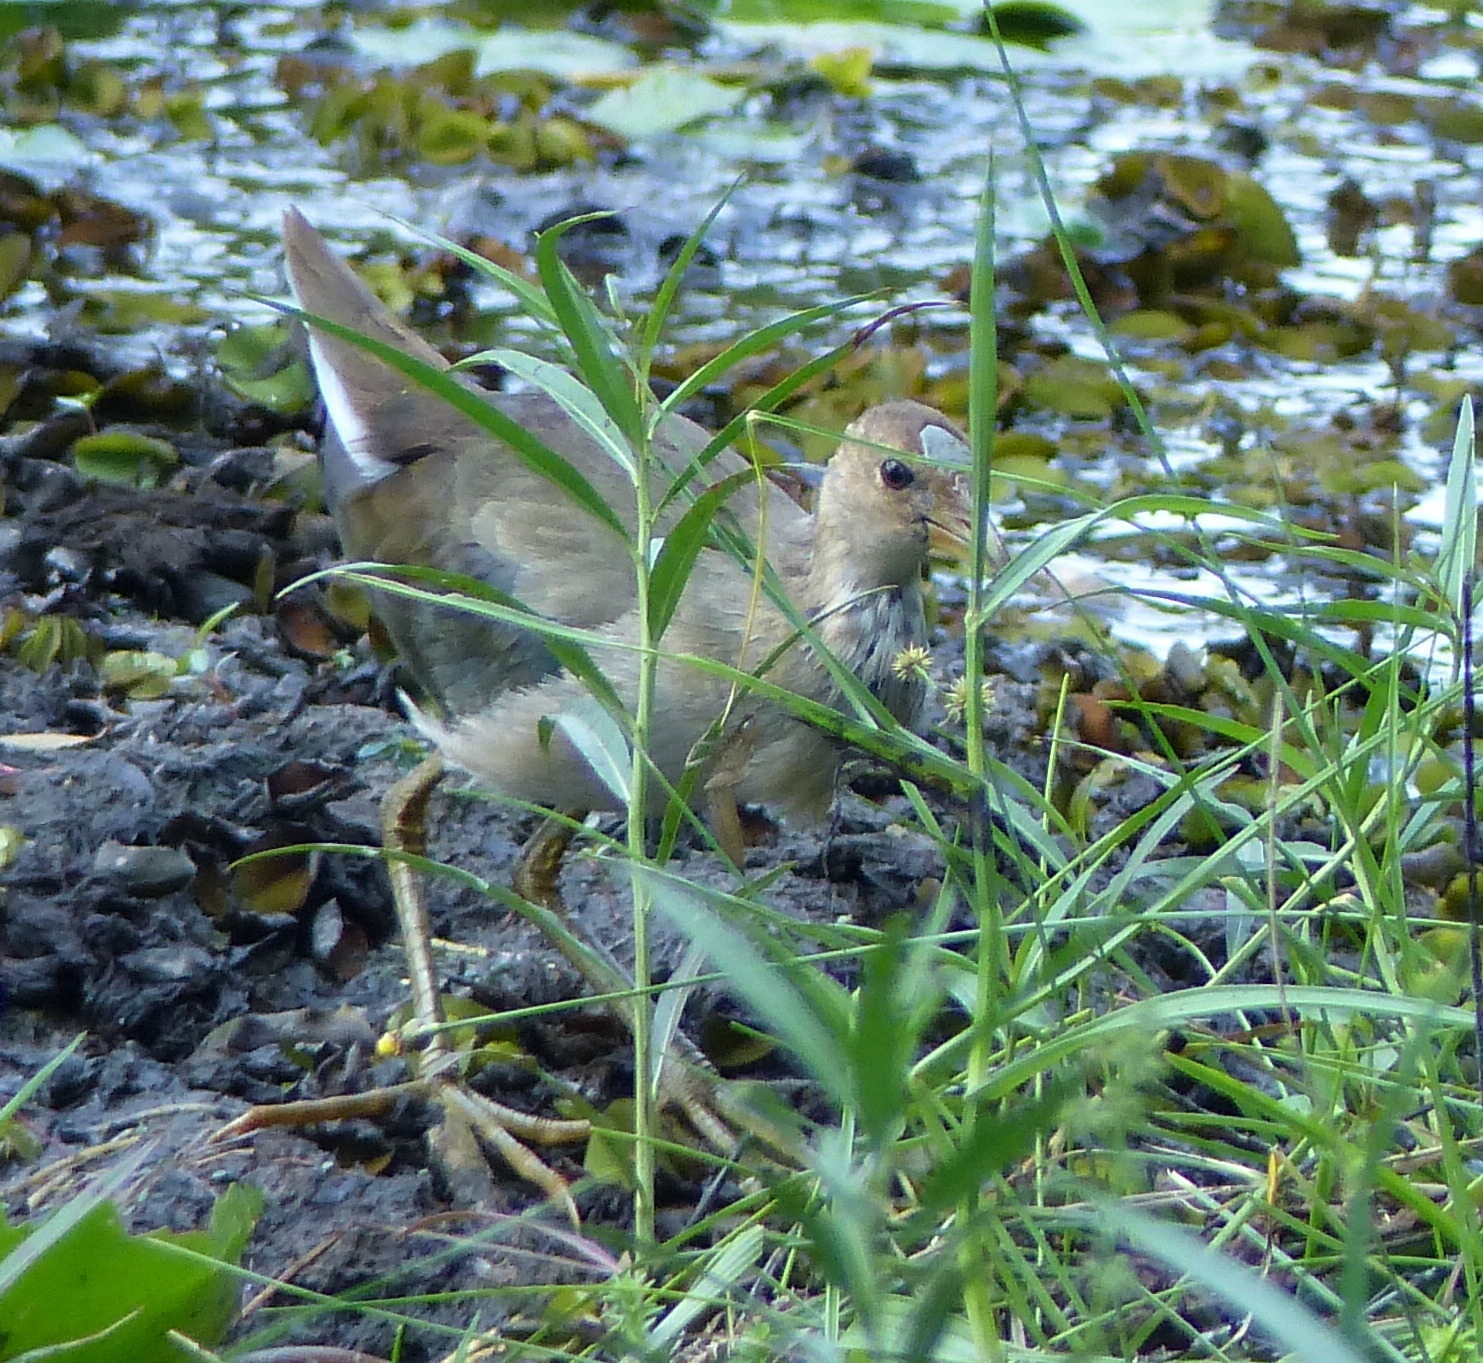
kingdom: Animalia
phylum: Chordata
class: Aves
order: Gruiformes
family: Rallidae
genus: Porphyrio
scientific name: Porphyrio martinica
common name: Purple gallinule
